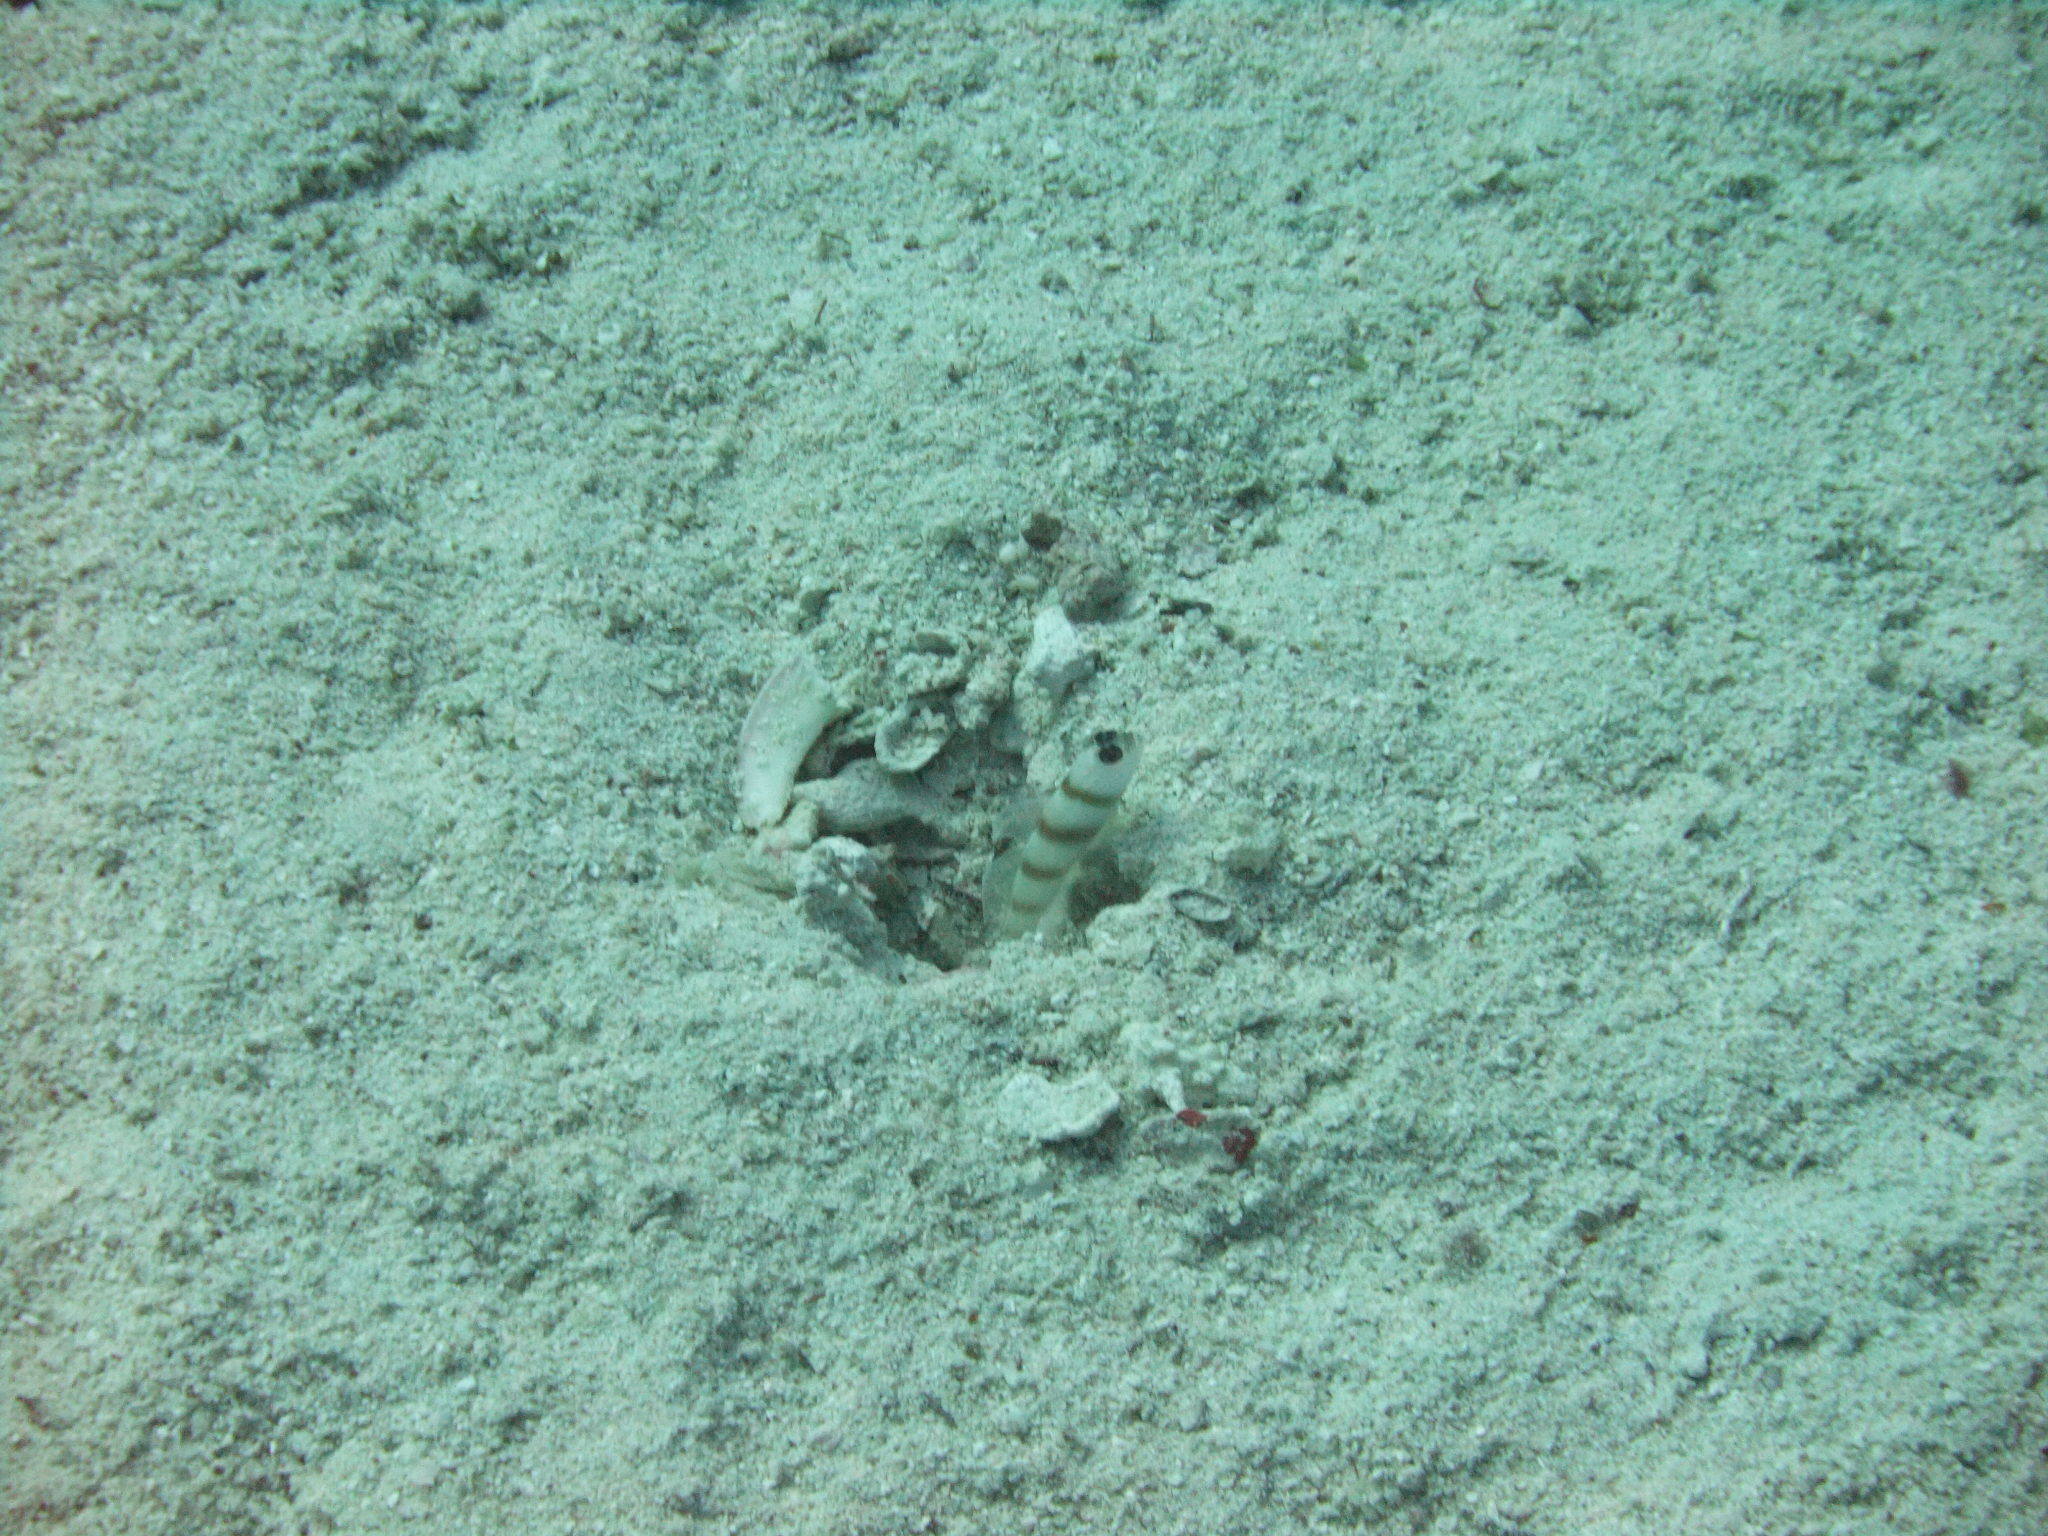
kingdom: Animalia
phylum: Chordata
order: Perciformes
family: Gobiidae
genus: Amblyeleotris
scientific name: Amblyeleotris steinitzi
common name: Steinitz' prawn-goby
